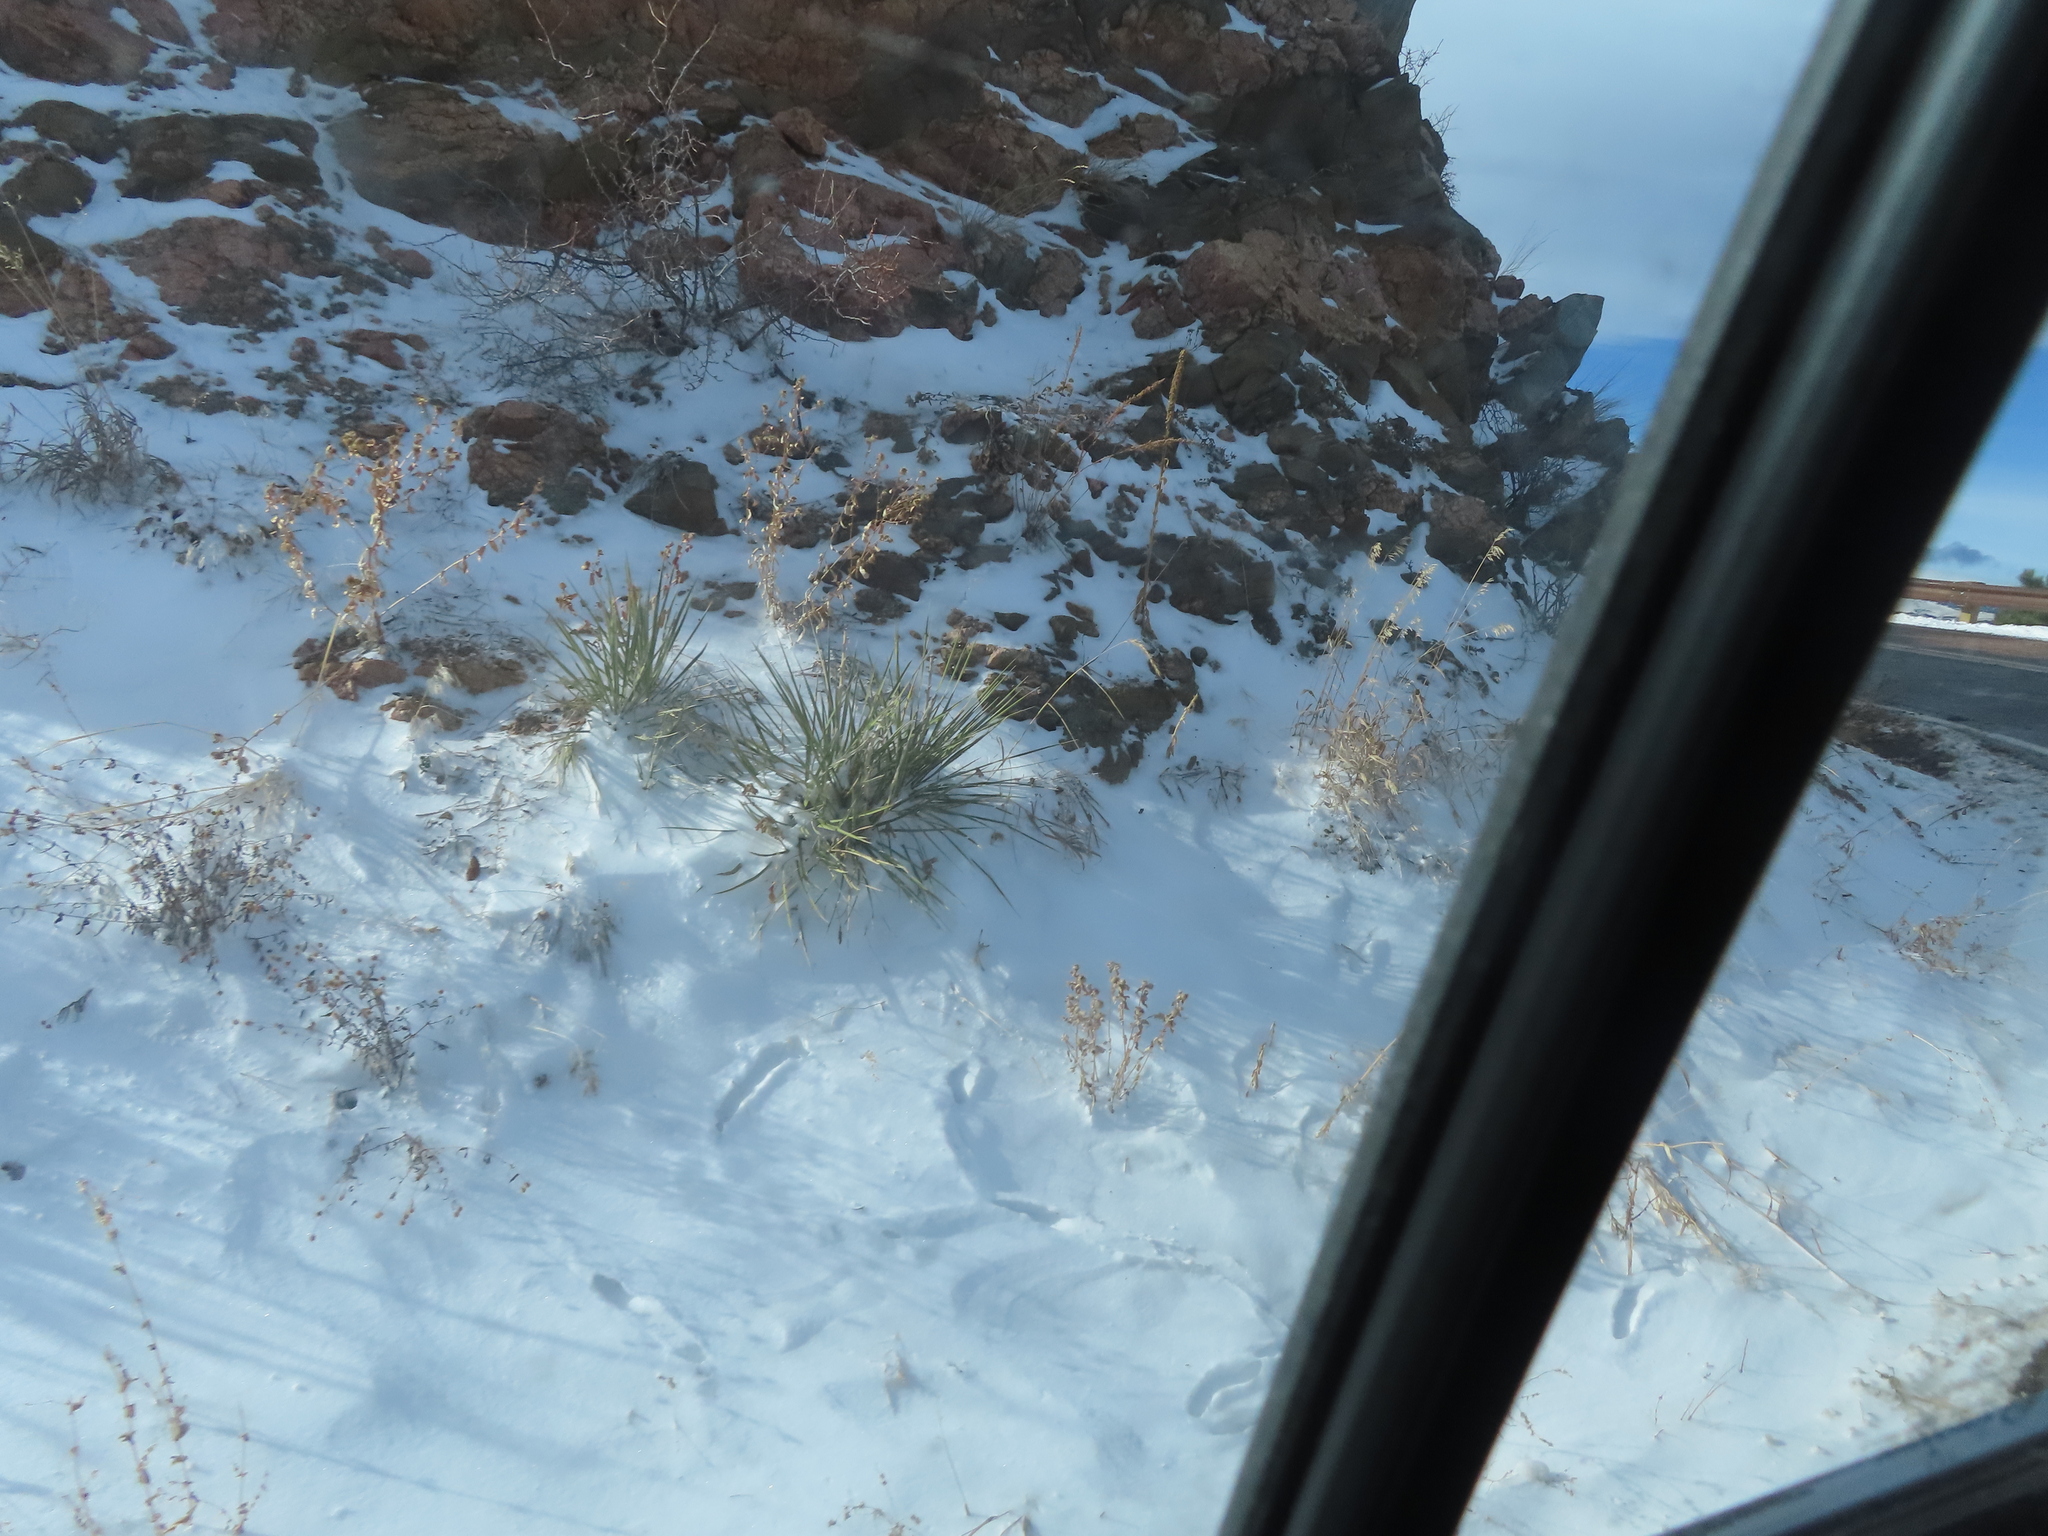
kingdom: Plantae
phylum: Tracheophyta
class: Liliopsida
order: Asparagales
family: Asparagaceae
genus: Yucca
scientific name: Yucca glauca
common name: Great plains yucca
